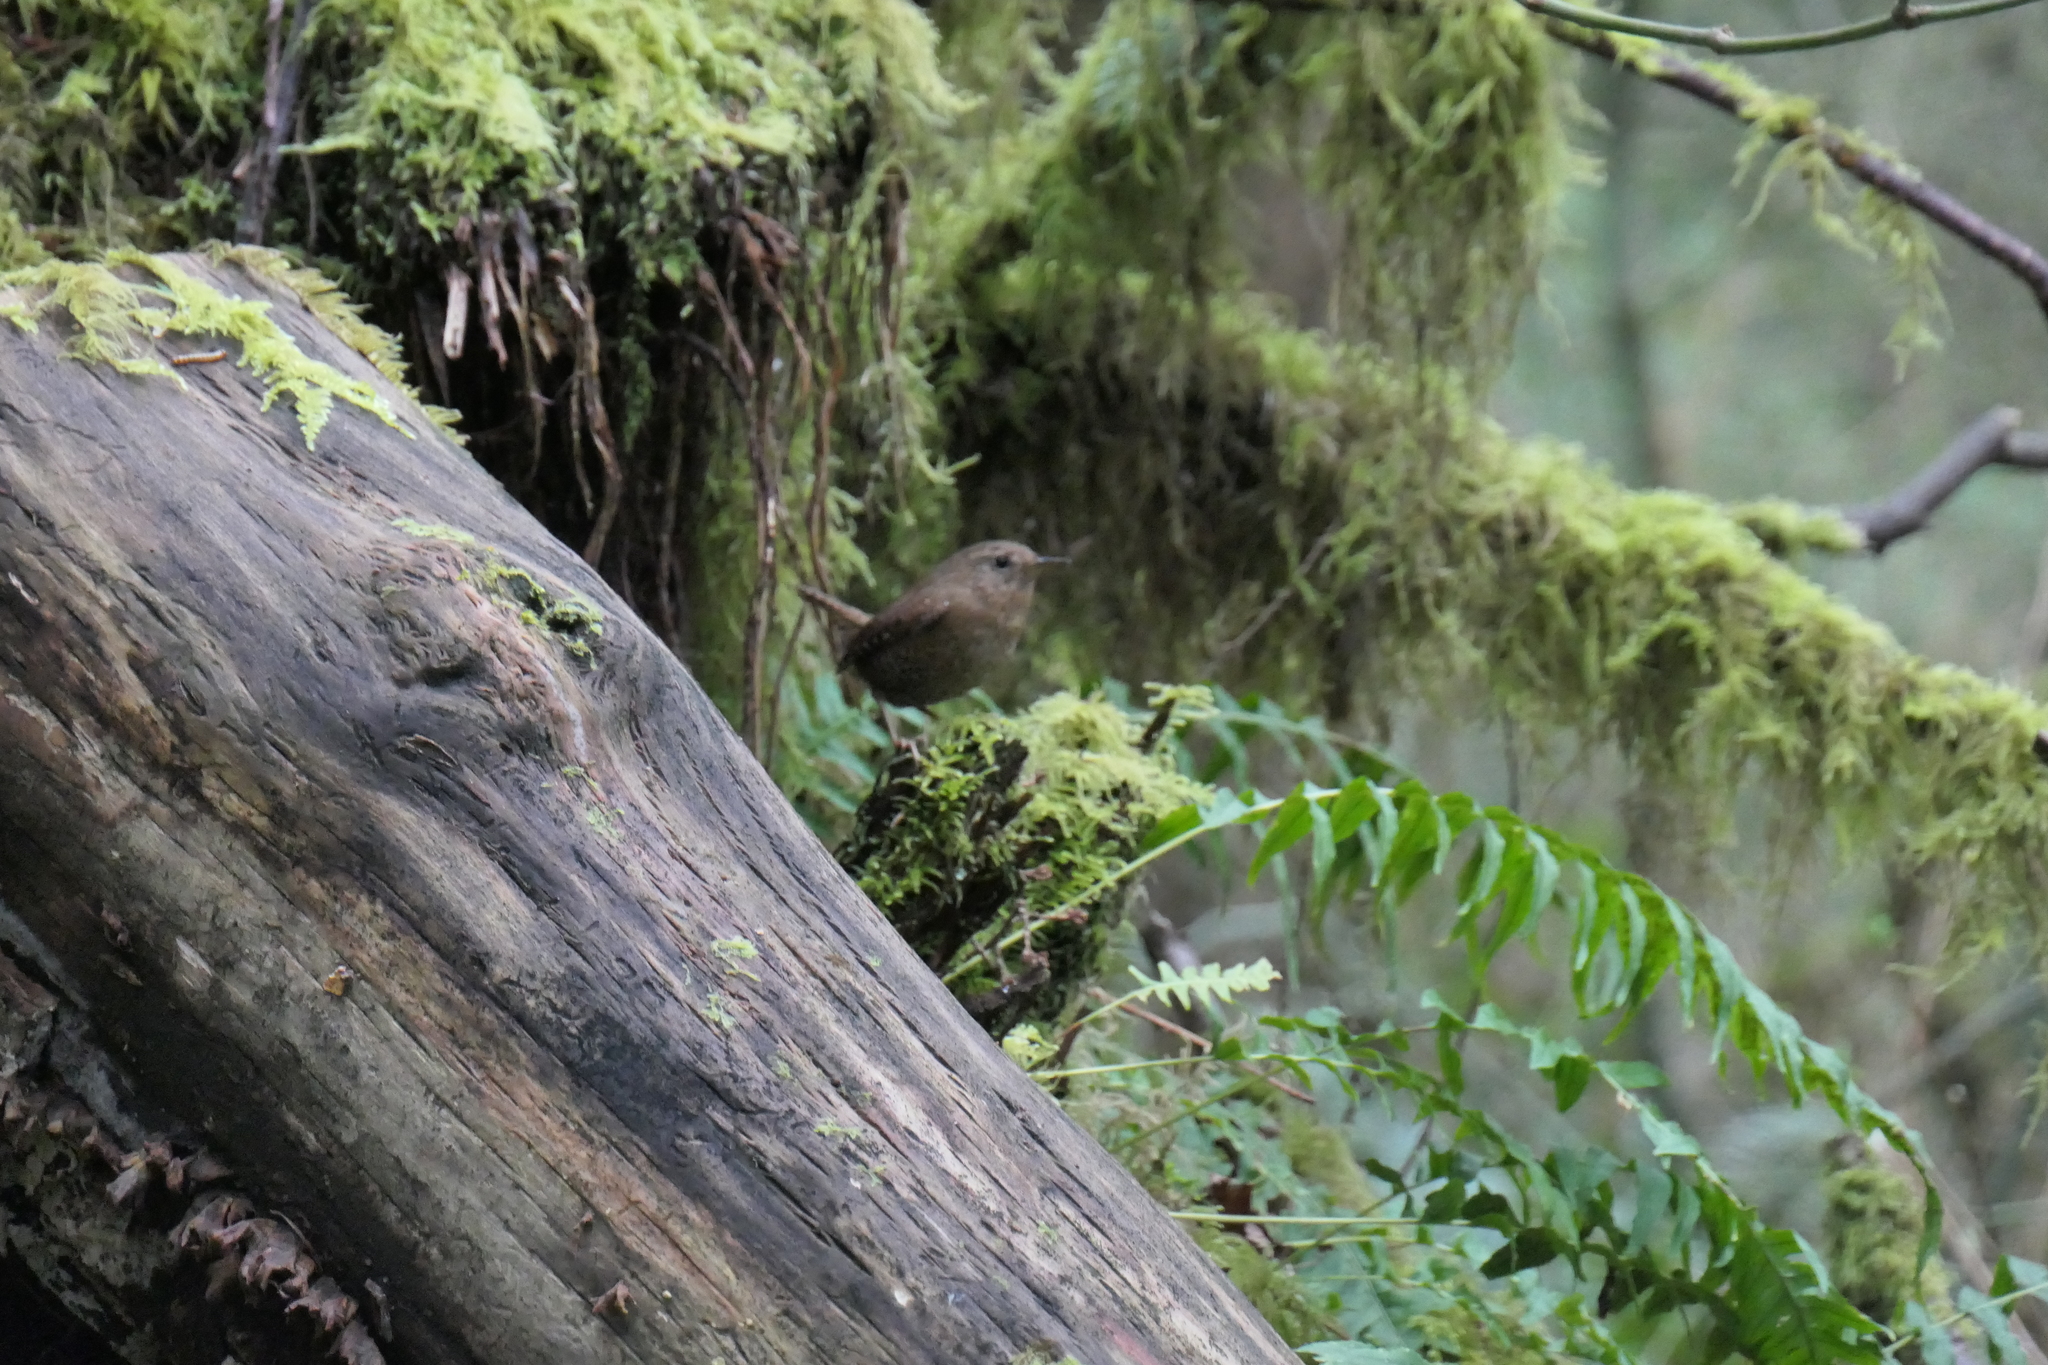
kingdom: Animalia
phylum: Chordata
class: Aves
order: Passeriformes
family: Troglodytidae
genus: Troglodytes
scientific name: Troglodytes pacificus
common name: Pacific wren
